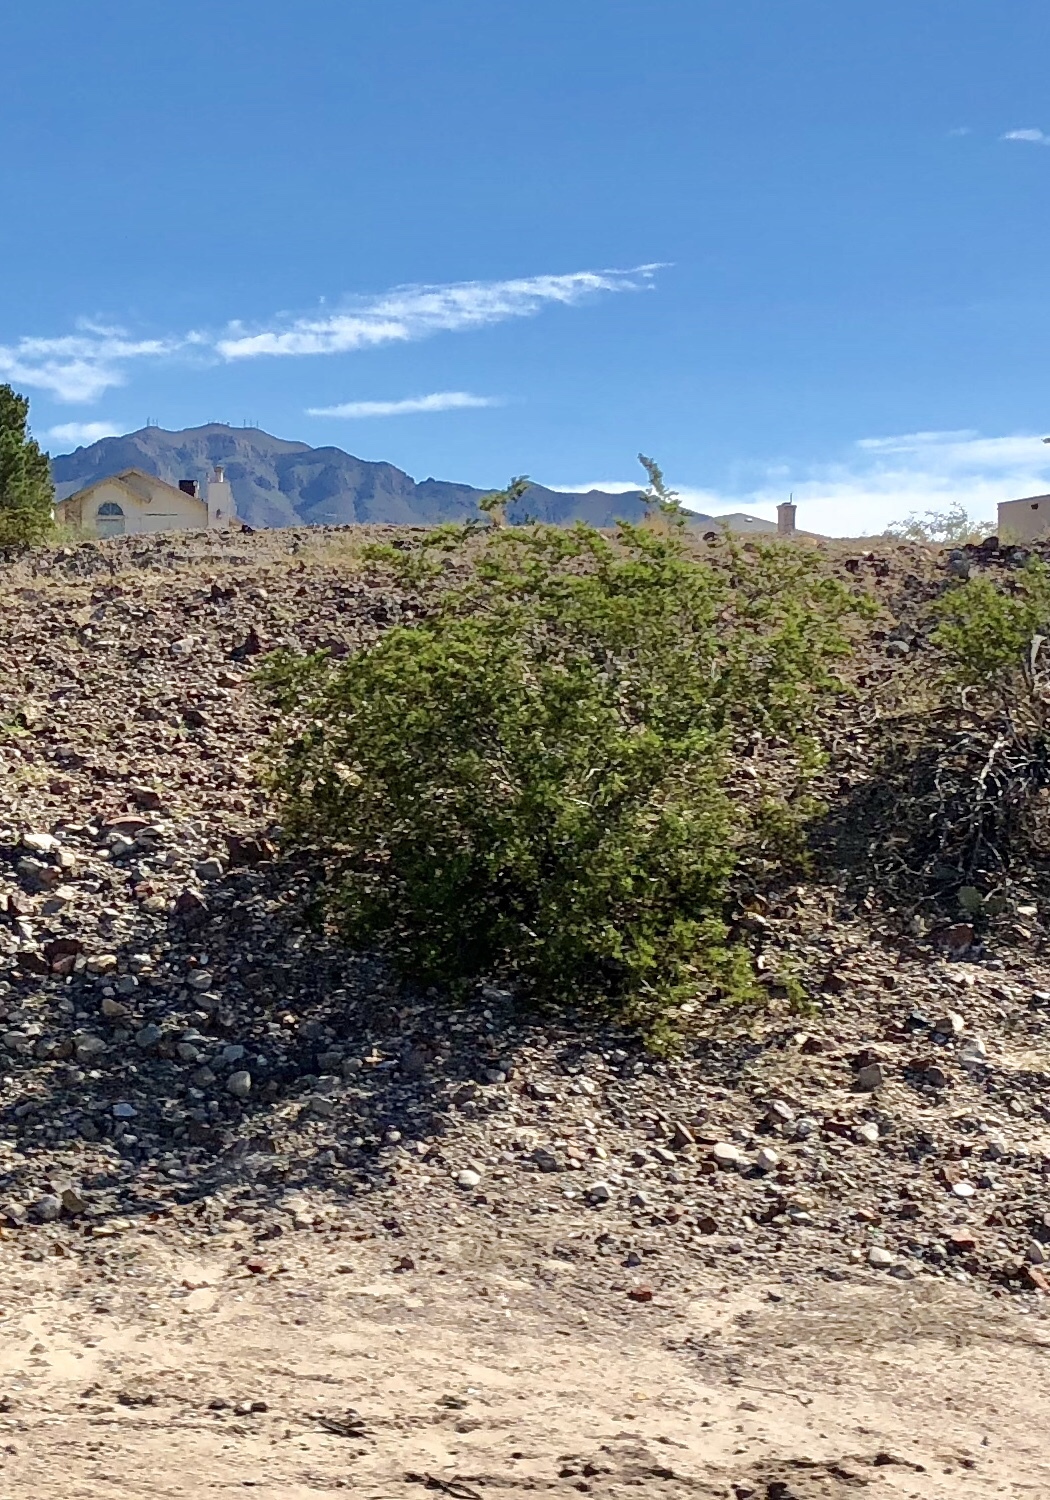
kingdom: Plantae
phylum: Tracheophyta
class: Magnoliopsida
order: Zygophyllales
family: Zygophyllaceae
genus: Larrea
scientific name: Larrea tridentata
